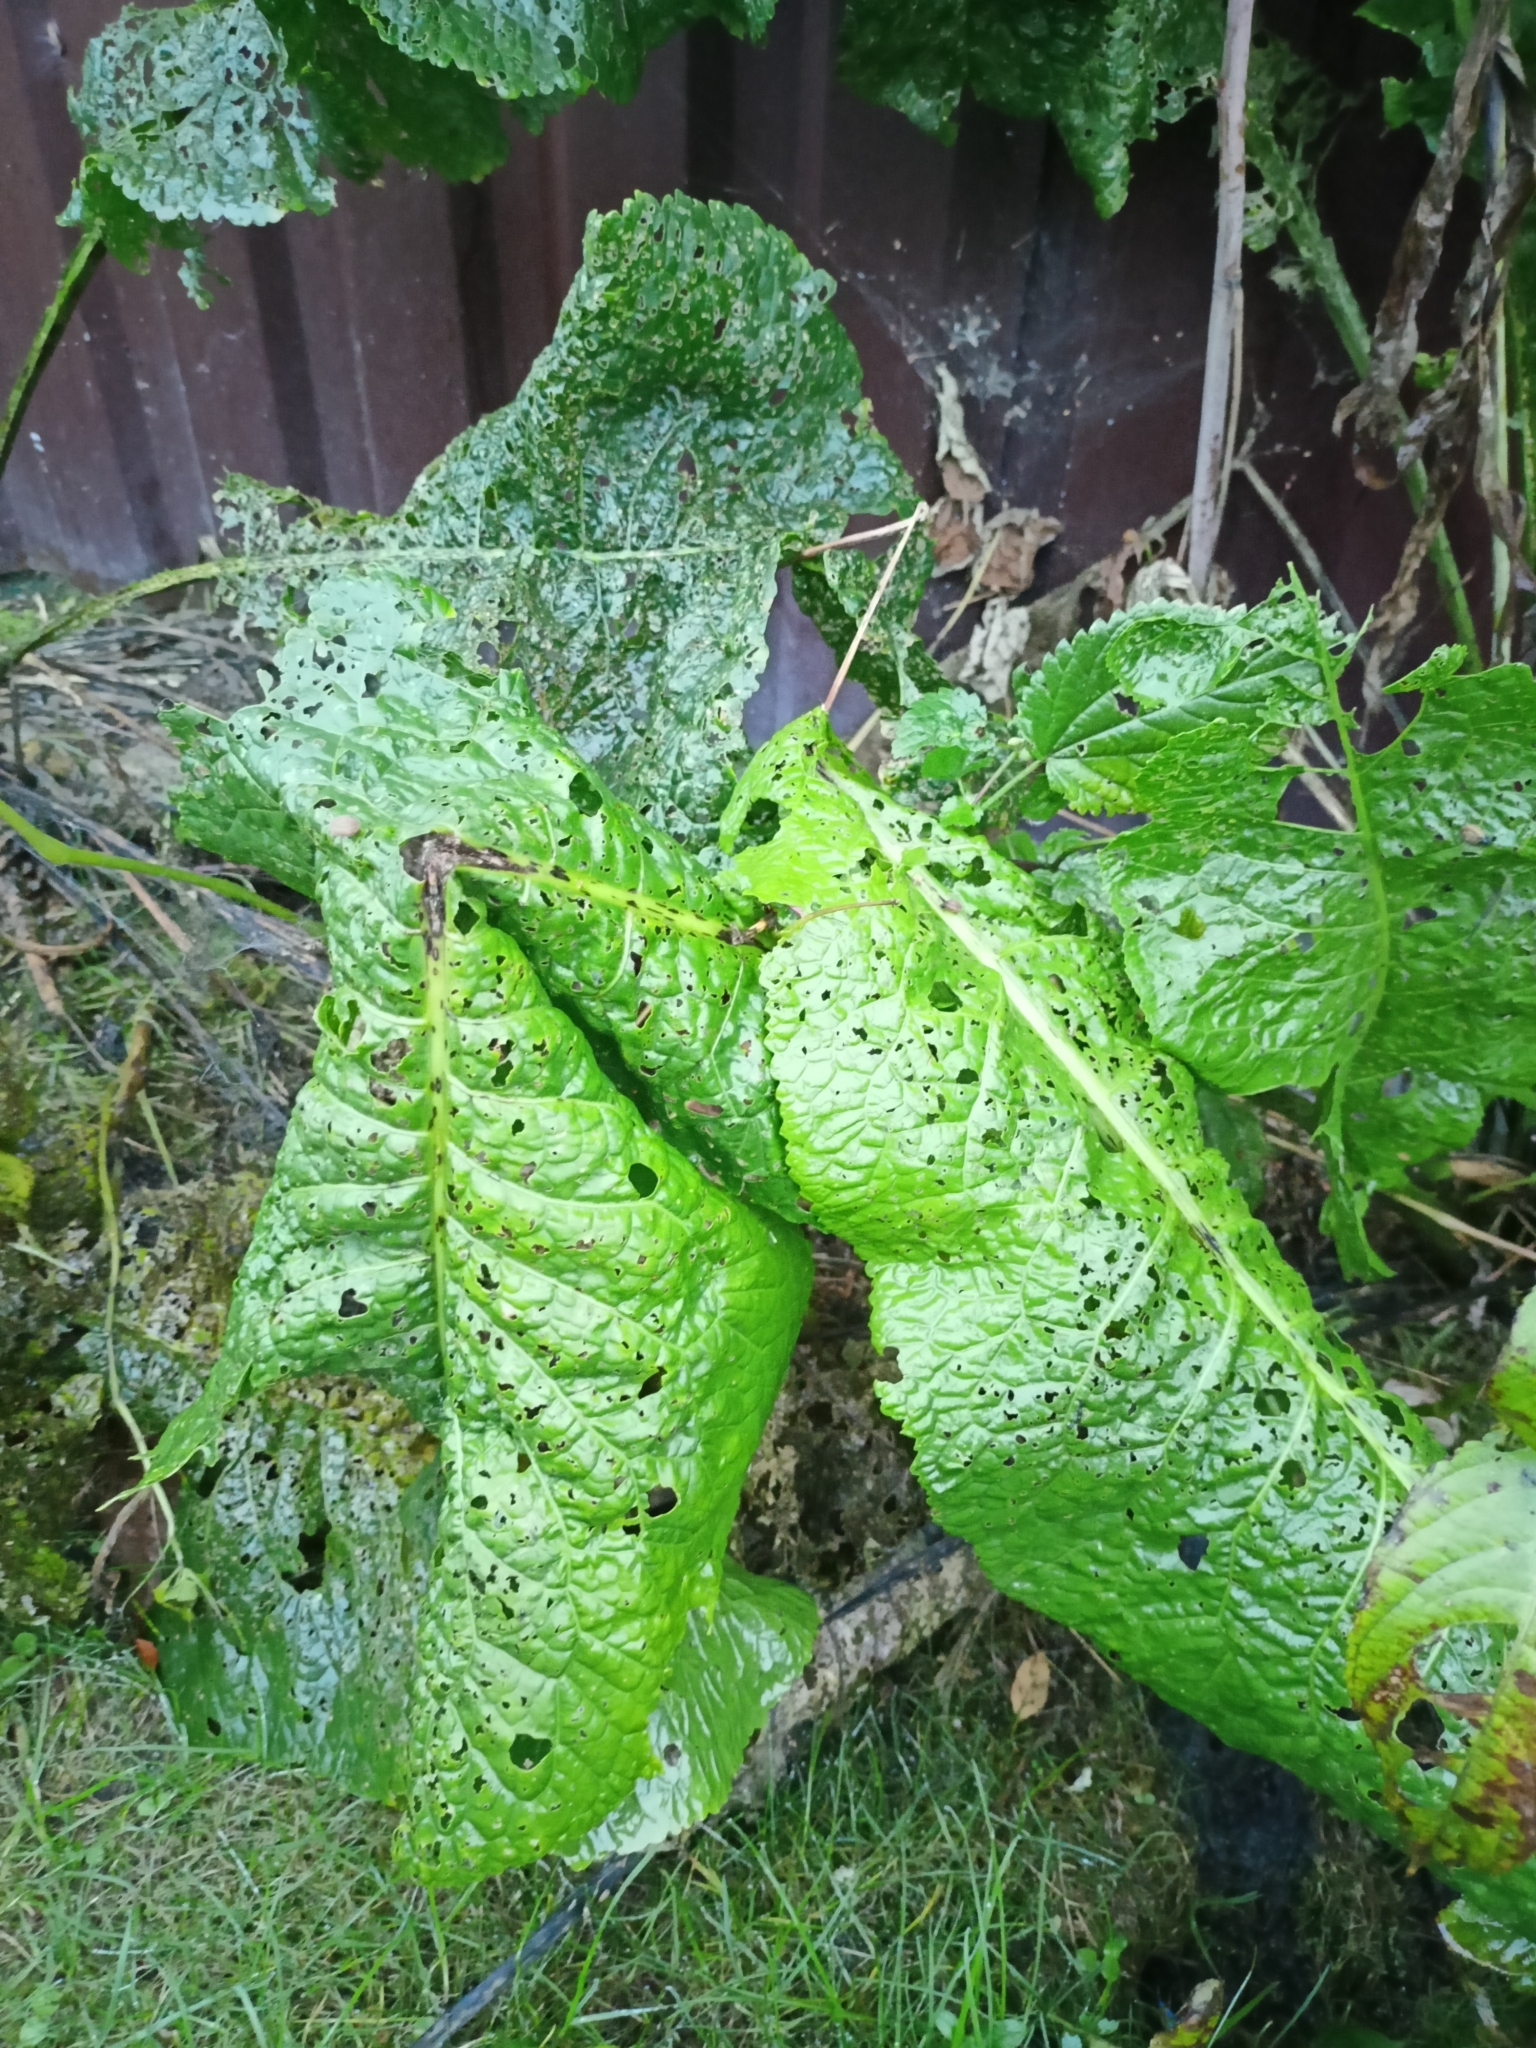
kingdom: Plantae
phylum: Tracheophyta
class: Magnoliopsida
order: Brassicales
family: Brassicaceae
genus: Armoracia
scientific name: Armoracia rusticana
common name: Horseradish
